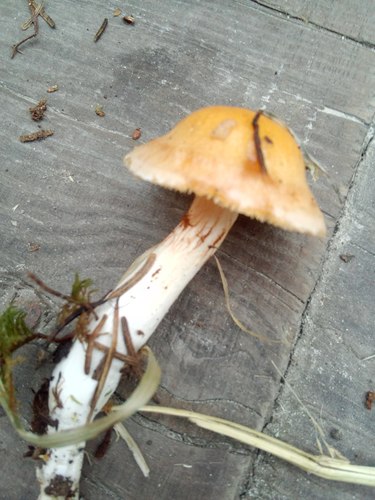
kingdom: Fungi
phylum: Basidiomycota
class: Agaricomycetes
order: Agaricales
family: Agaricaceae
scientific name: Agaricaceae
